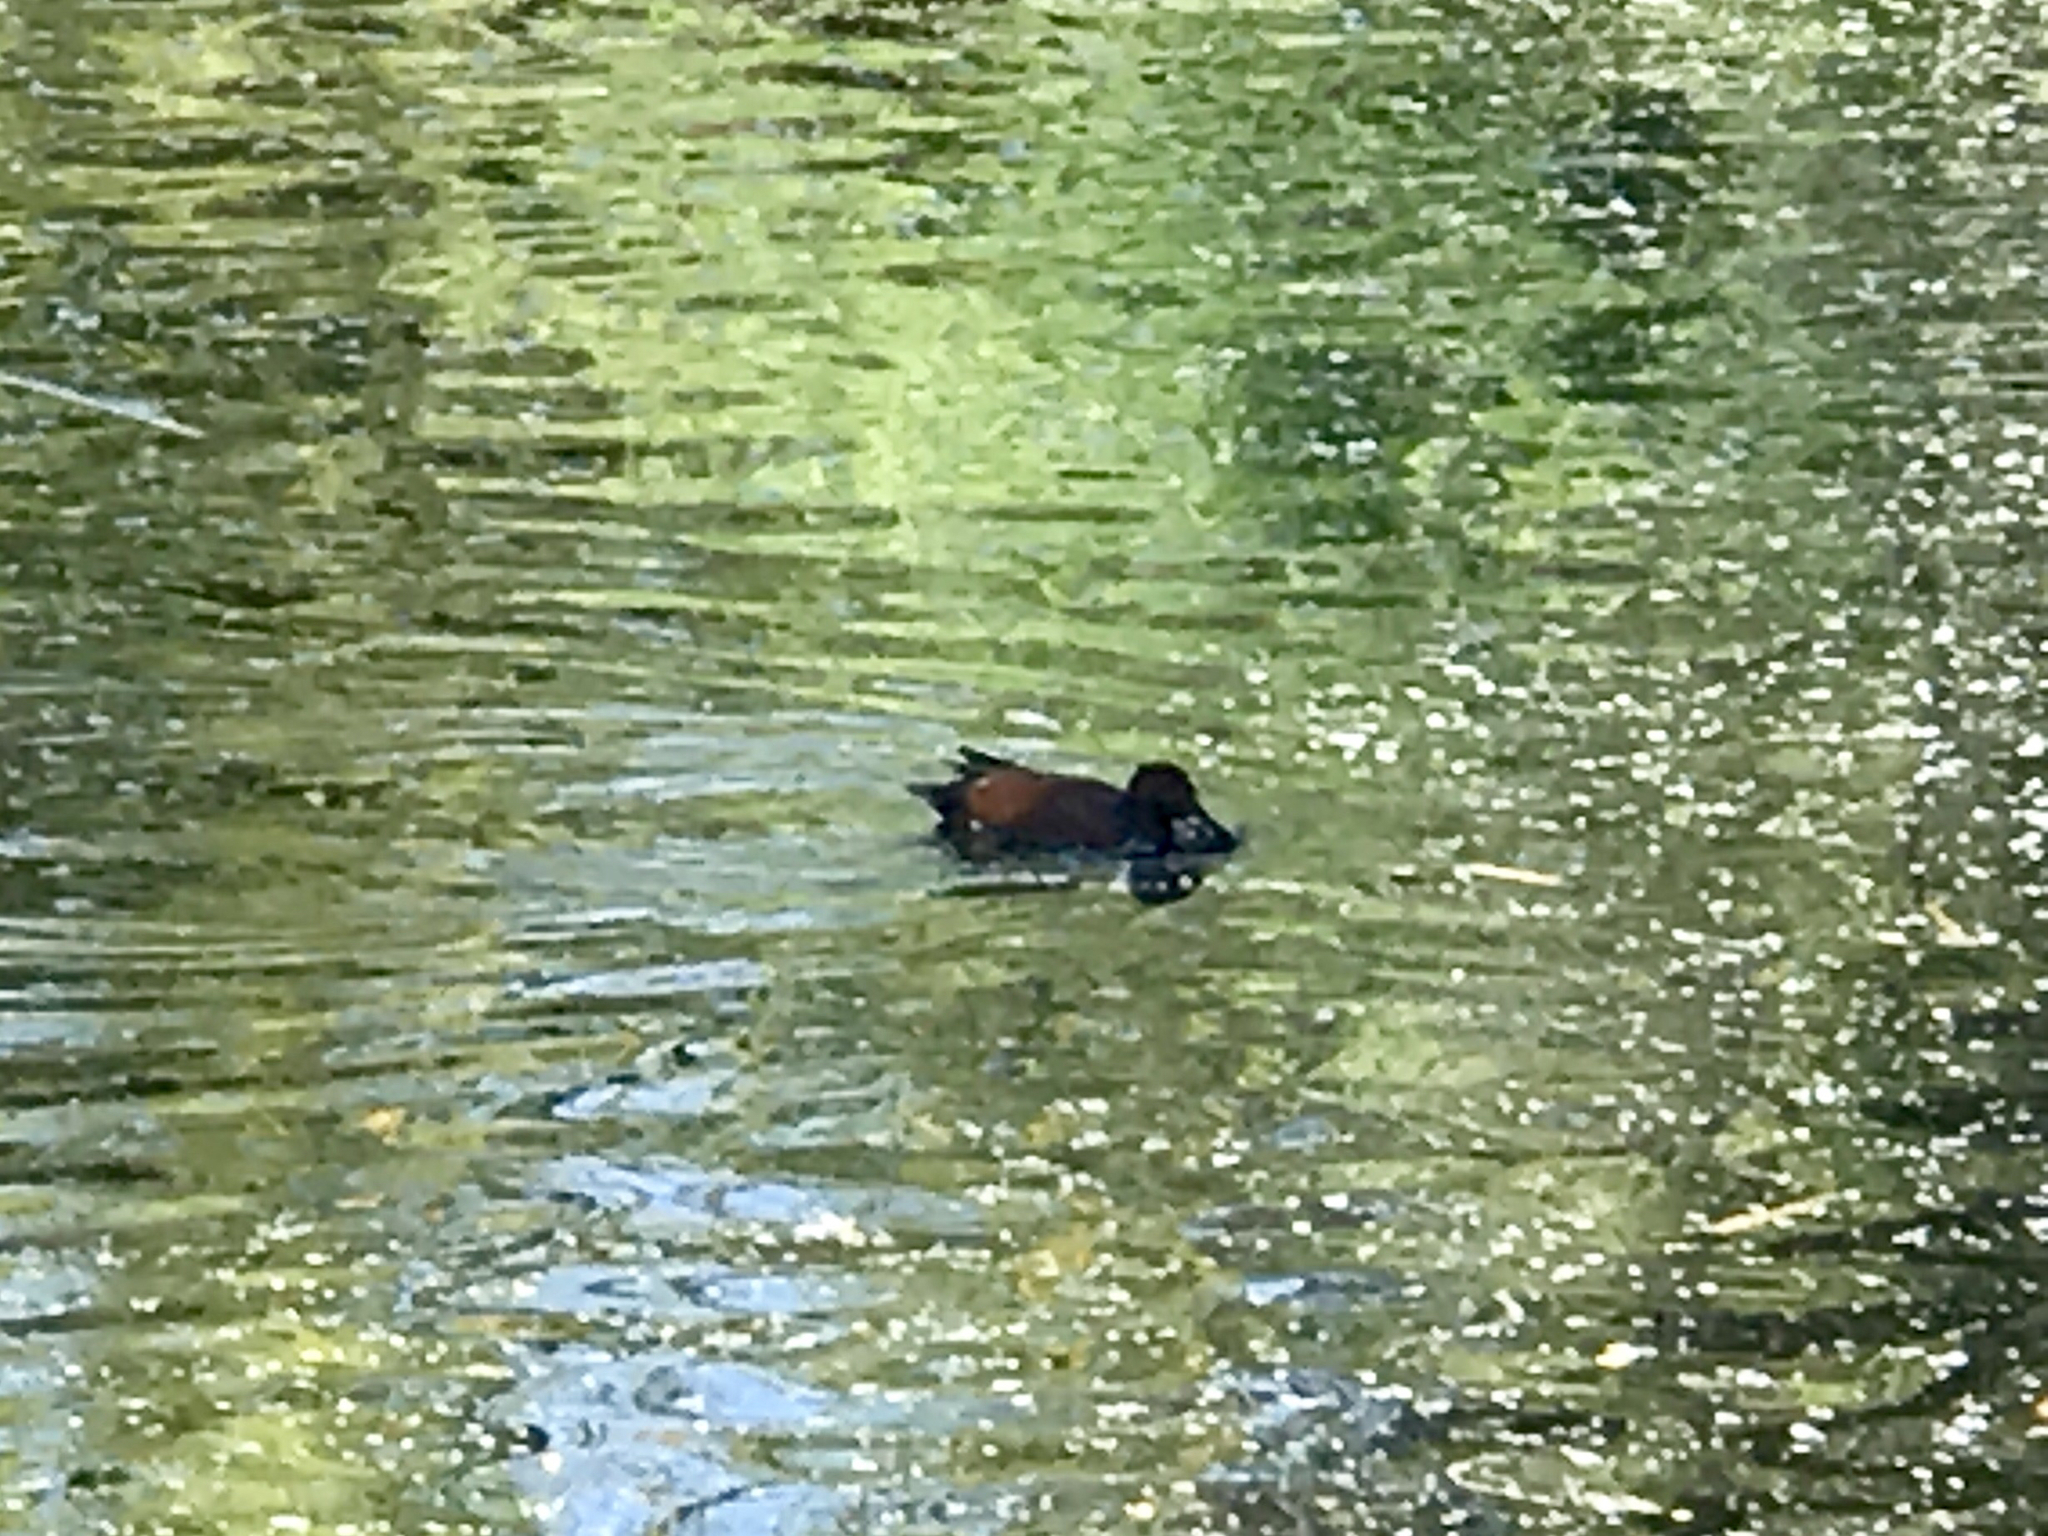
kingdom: Animalia
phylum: Chordata
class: Aves
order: Anseriformes
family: Anatidae
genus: Spatula
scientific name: Spatula cyanoptera
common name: Cinnamon teal
